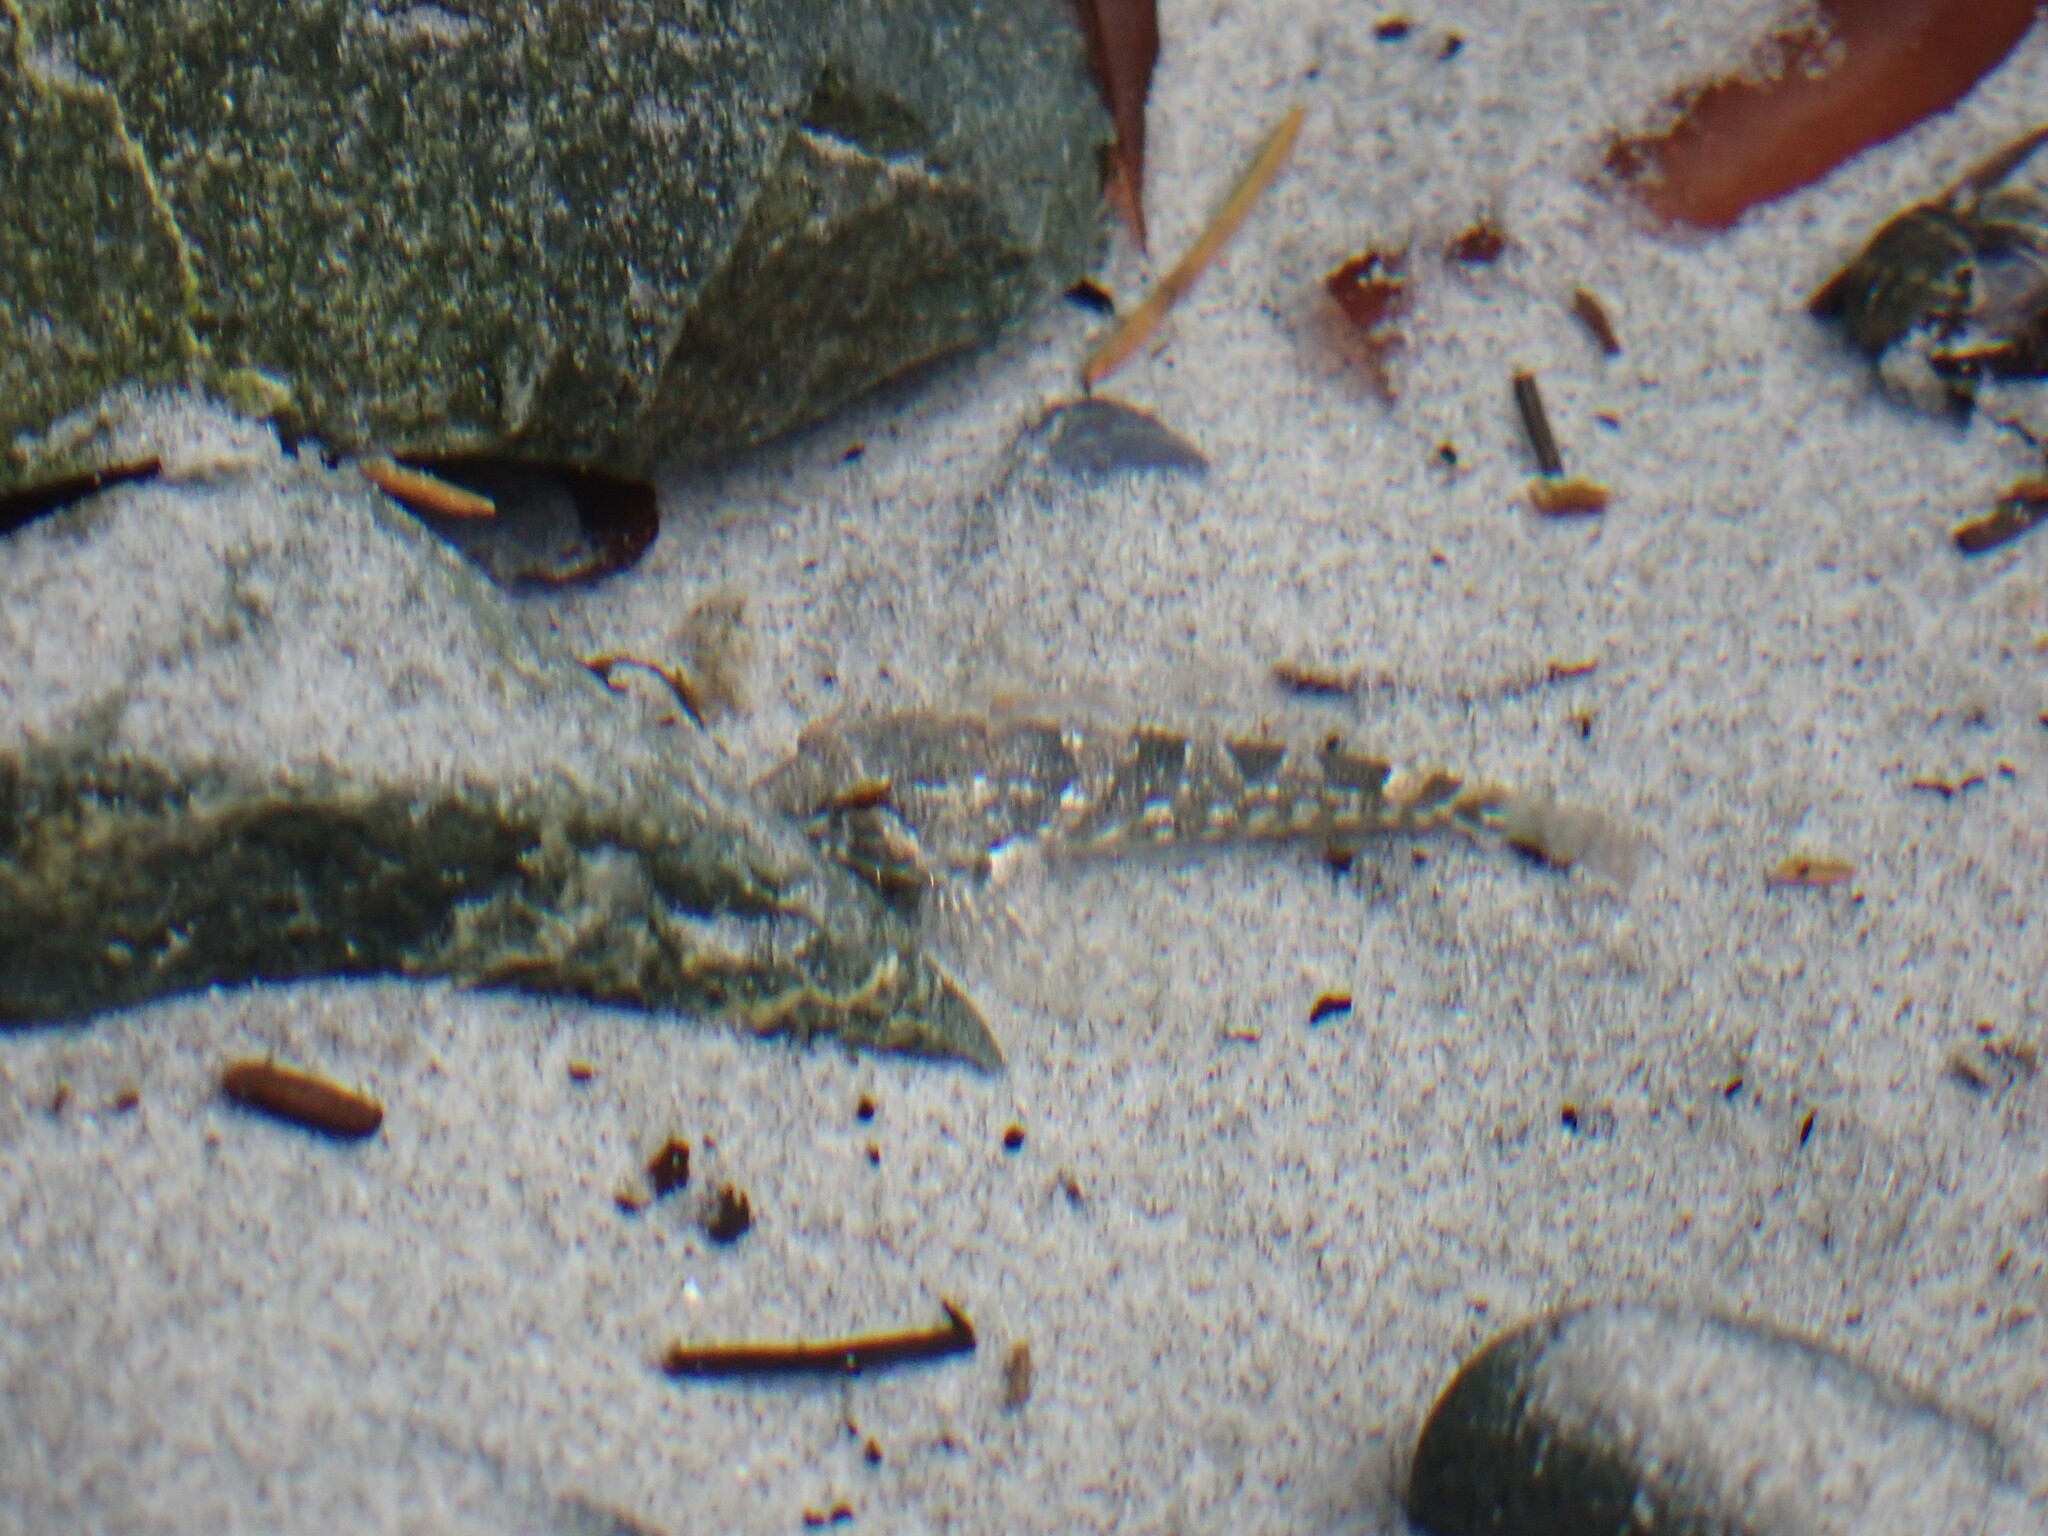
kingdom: Animalia
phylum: Chordata
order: Scorpaeniformes
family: Cottidae
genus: Oligocottus
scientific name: Oligocottus maculosus
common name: Tidepool sculpin
